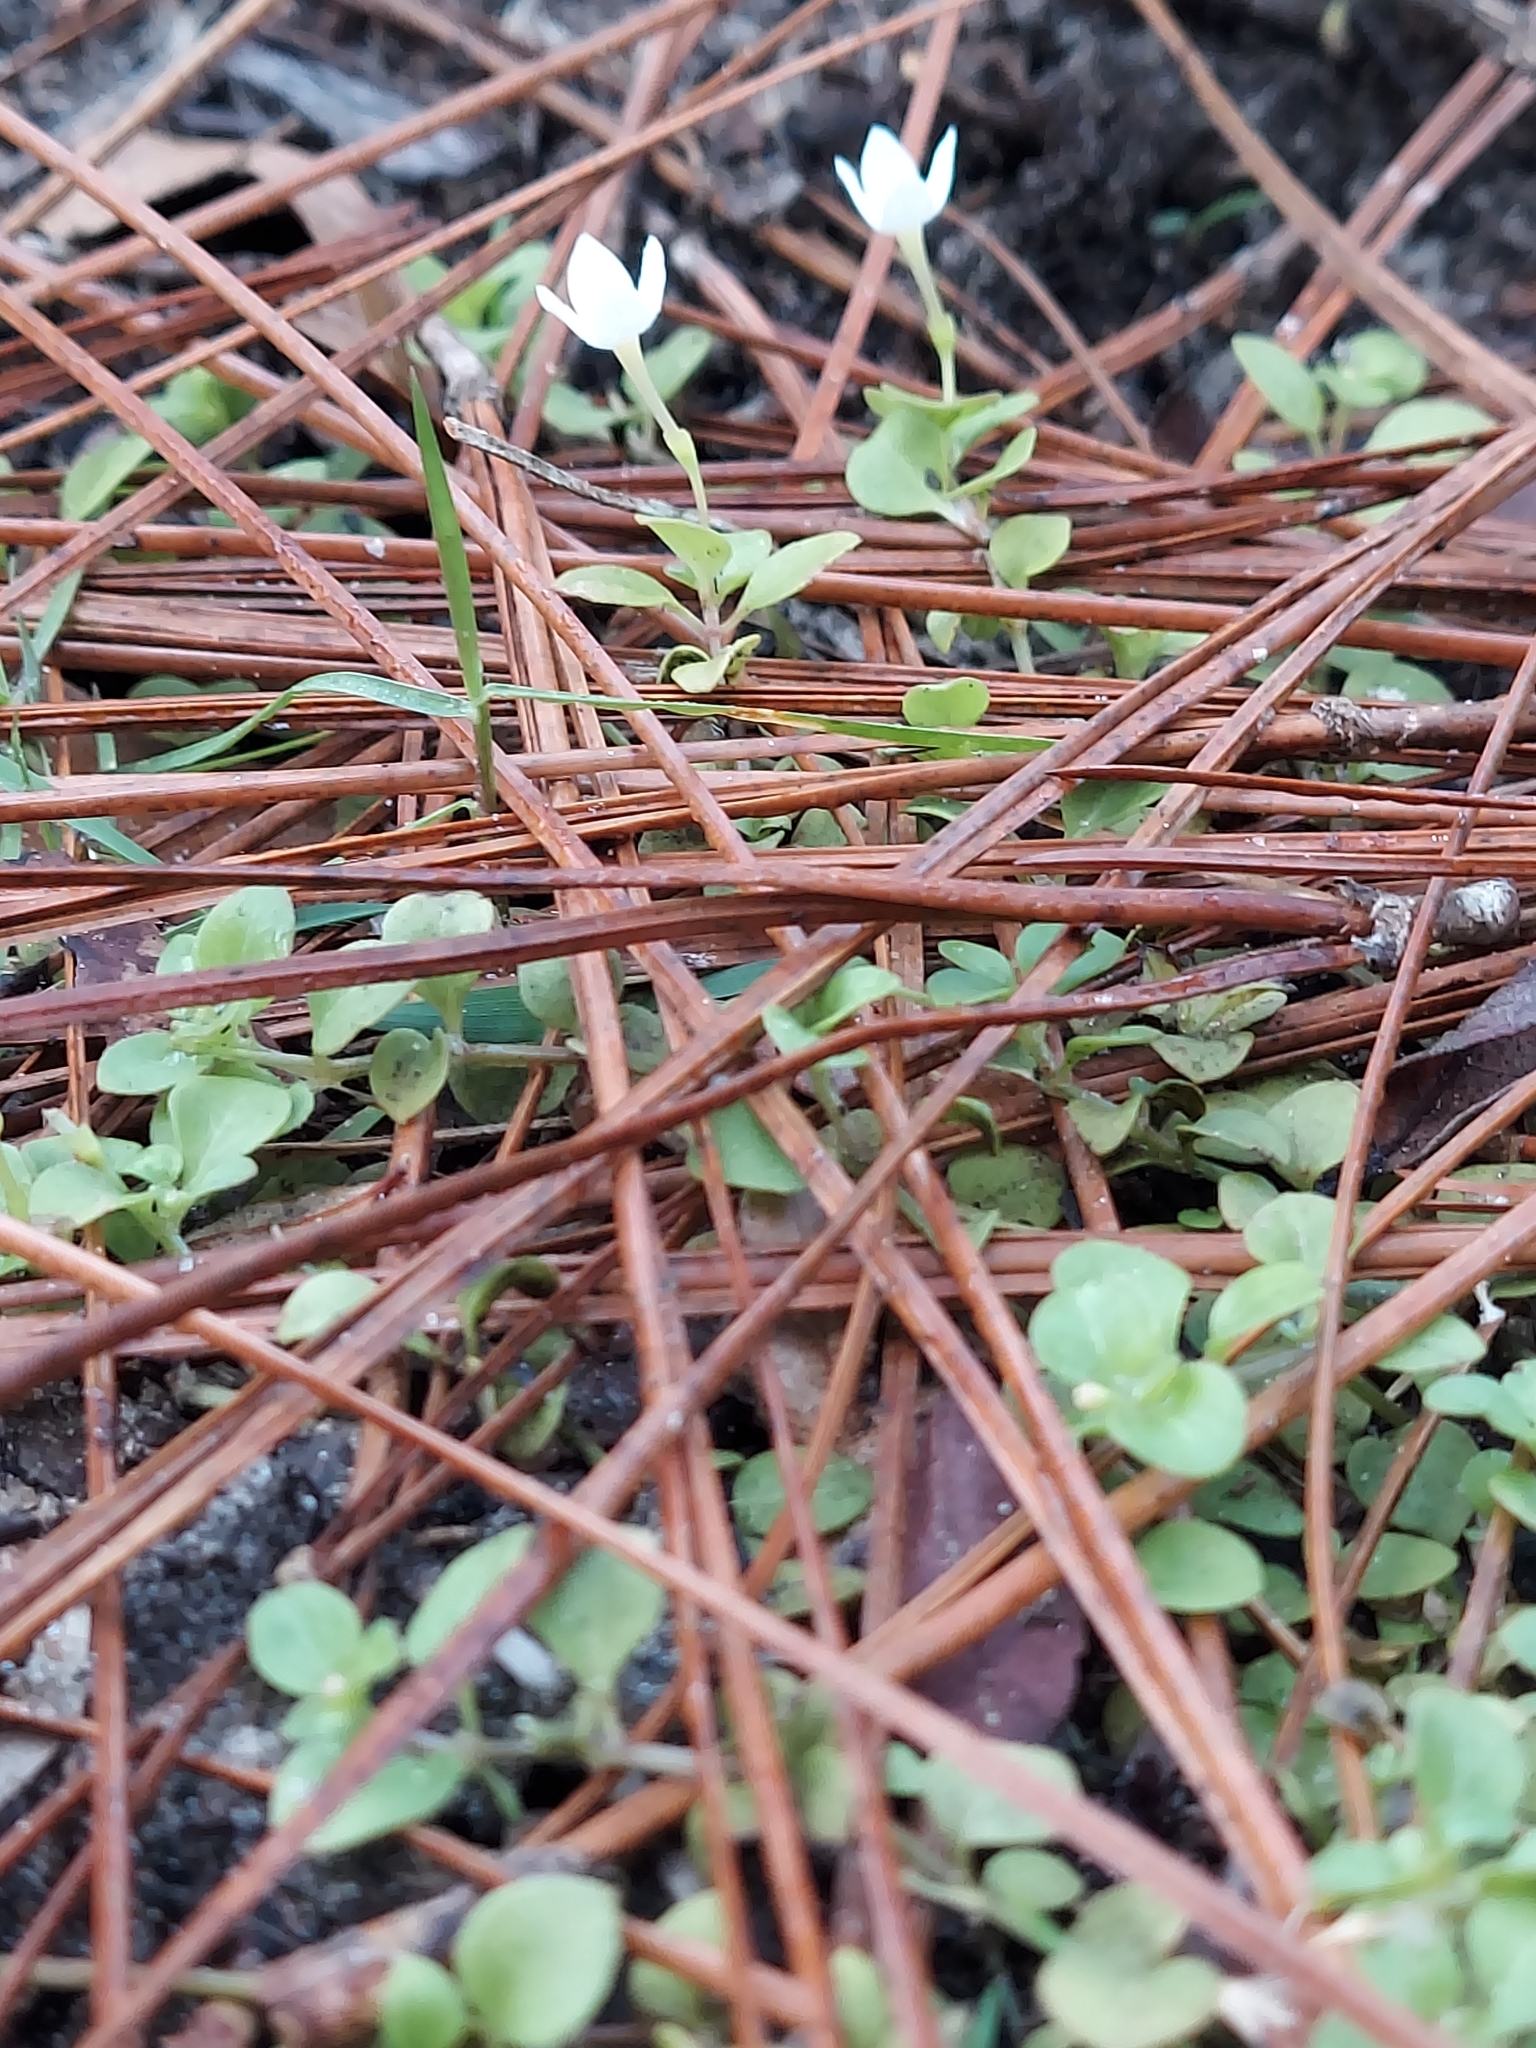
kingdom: Plantae
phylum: Tracheophyta
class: Magnoliopsida
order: Gentianales
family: Rubiaceae
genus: Houstonia
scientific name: Houstonia procumbens
